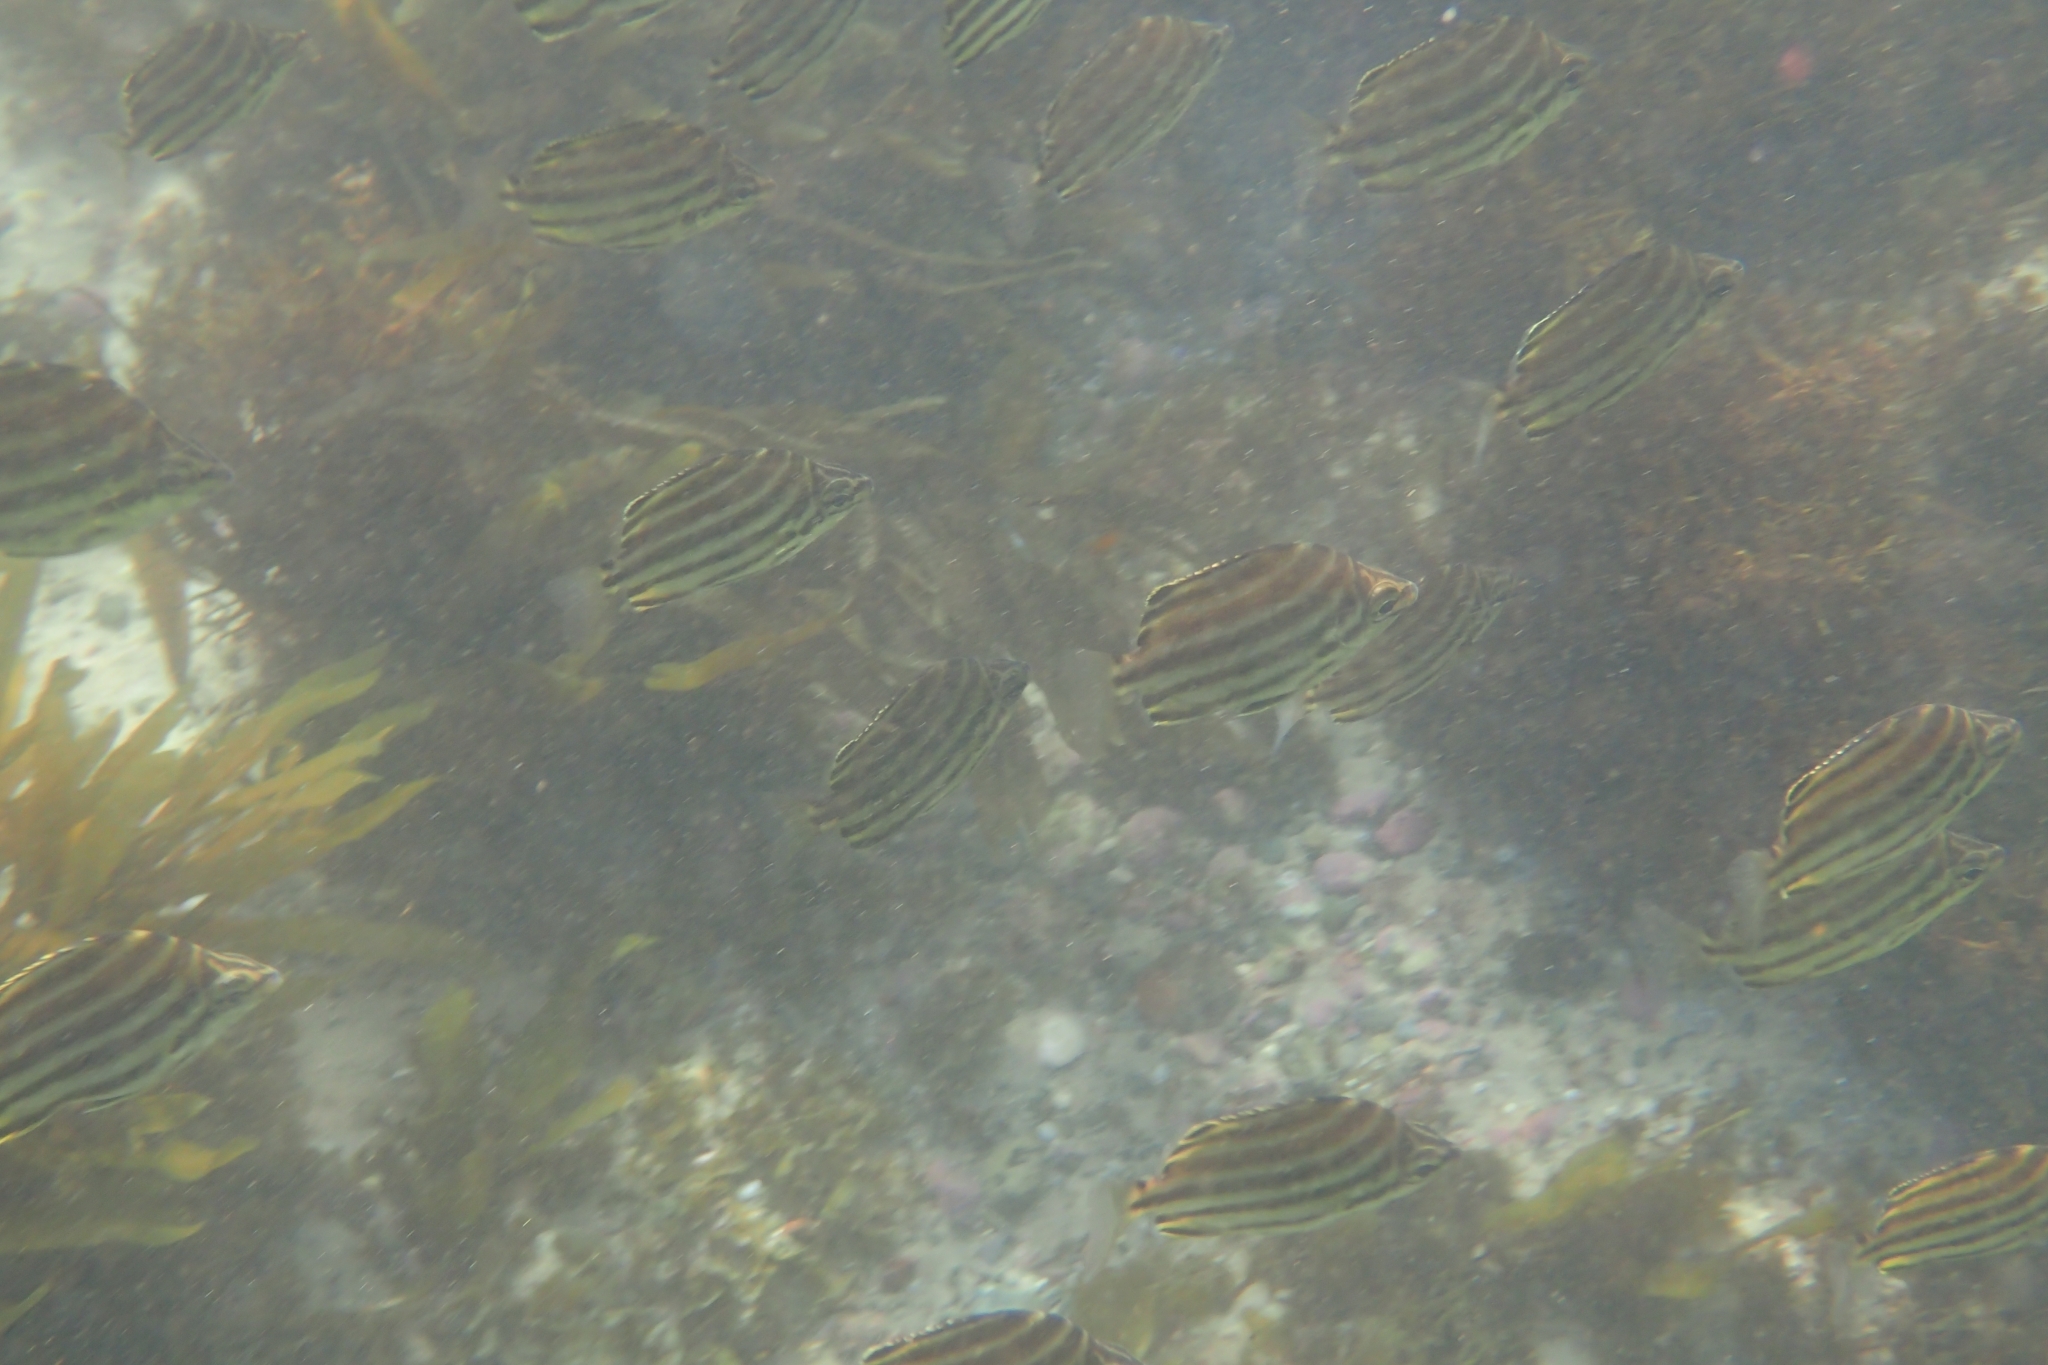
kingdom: Animalia
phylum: Chordata
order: Perciformes
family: Kyphosidae
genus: Microcanthus
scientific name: Microcanthus joyceae
